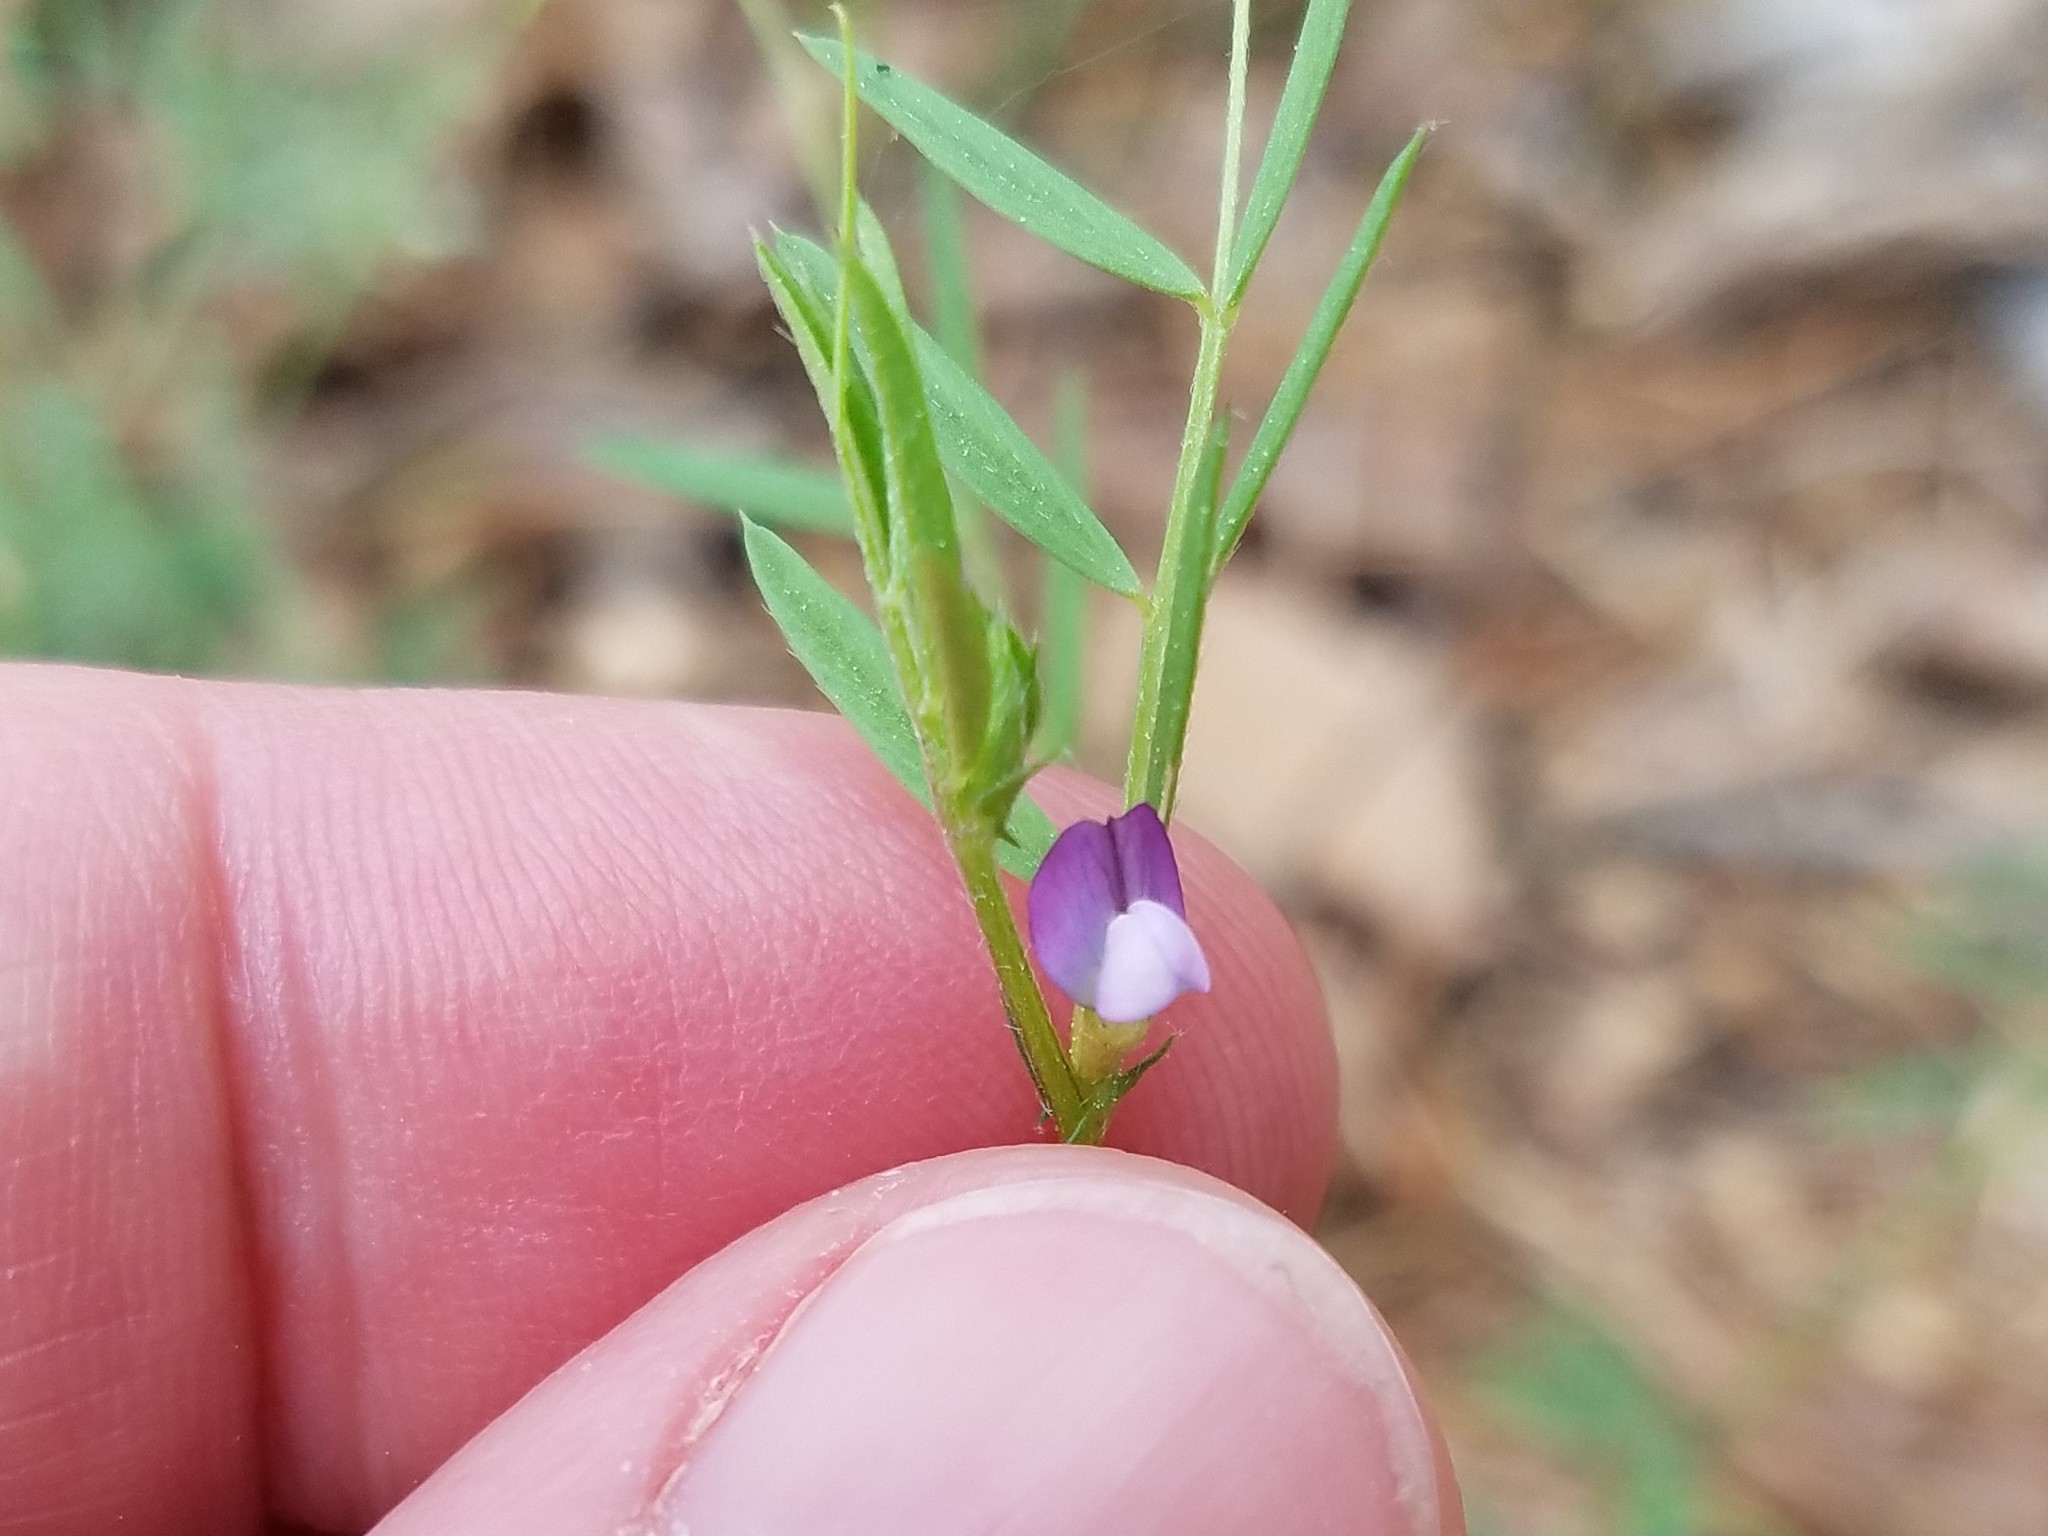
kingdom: Plantae
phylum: Tracheophyta
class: Magnoliopsida
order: Fabales
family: Fabaceae
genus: Vicia
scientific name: Vicia lathyroides
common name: Spring vetch
